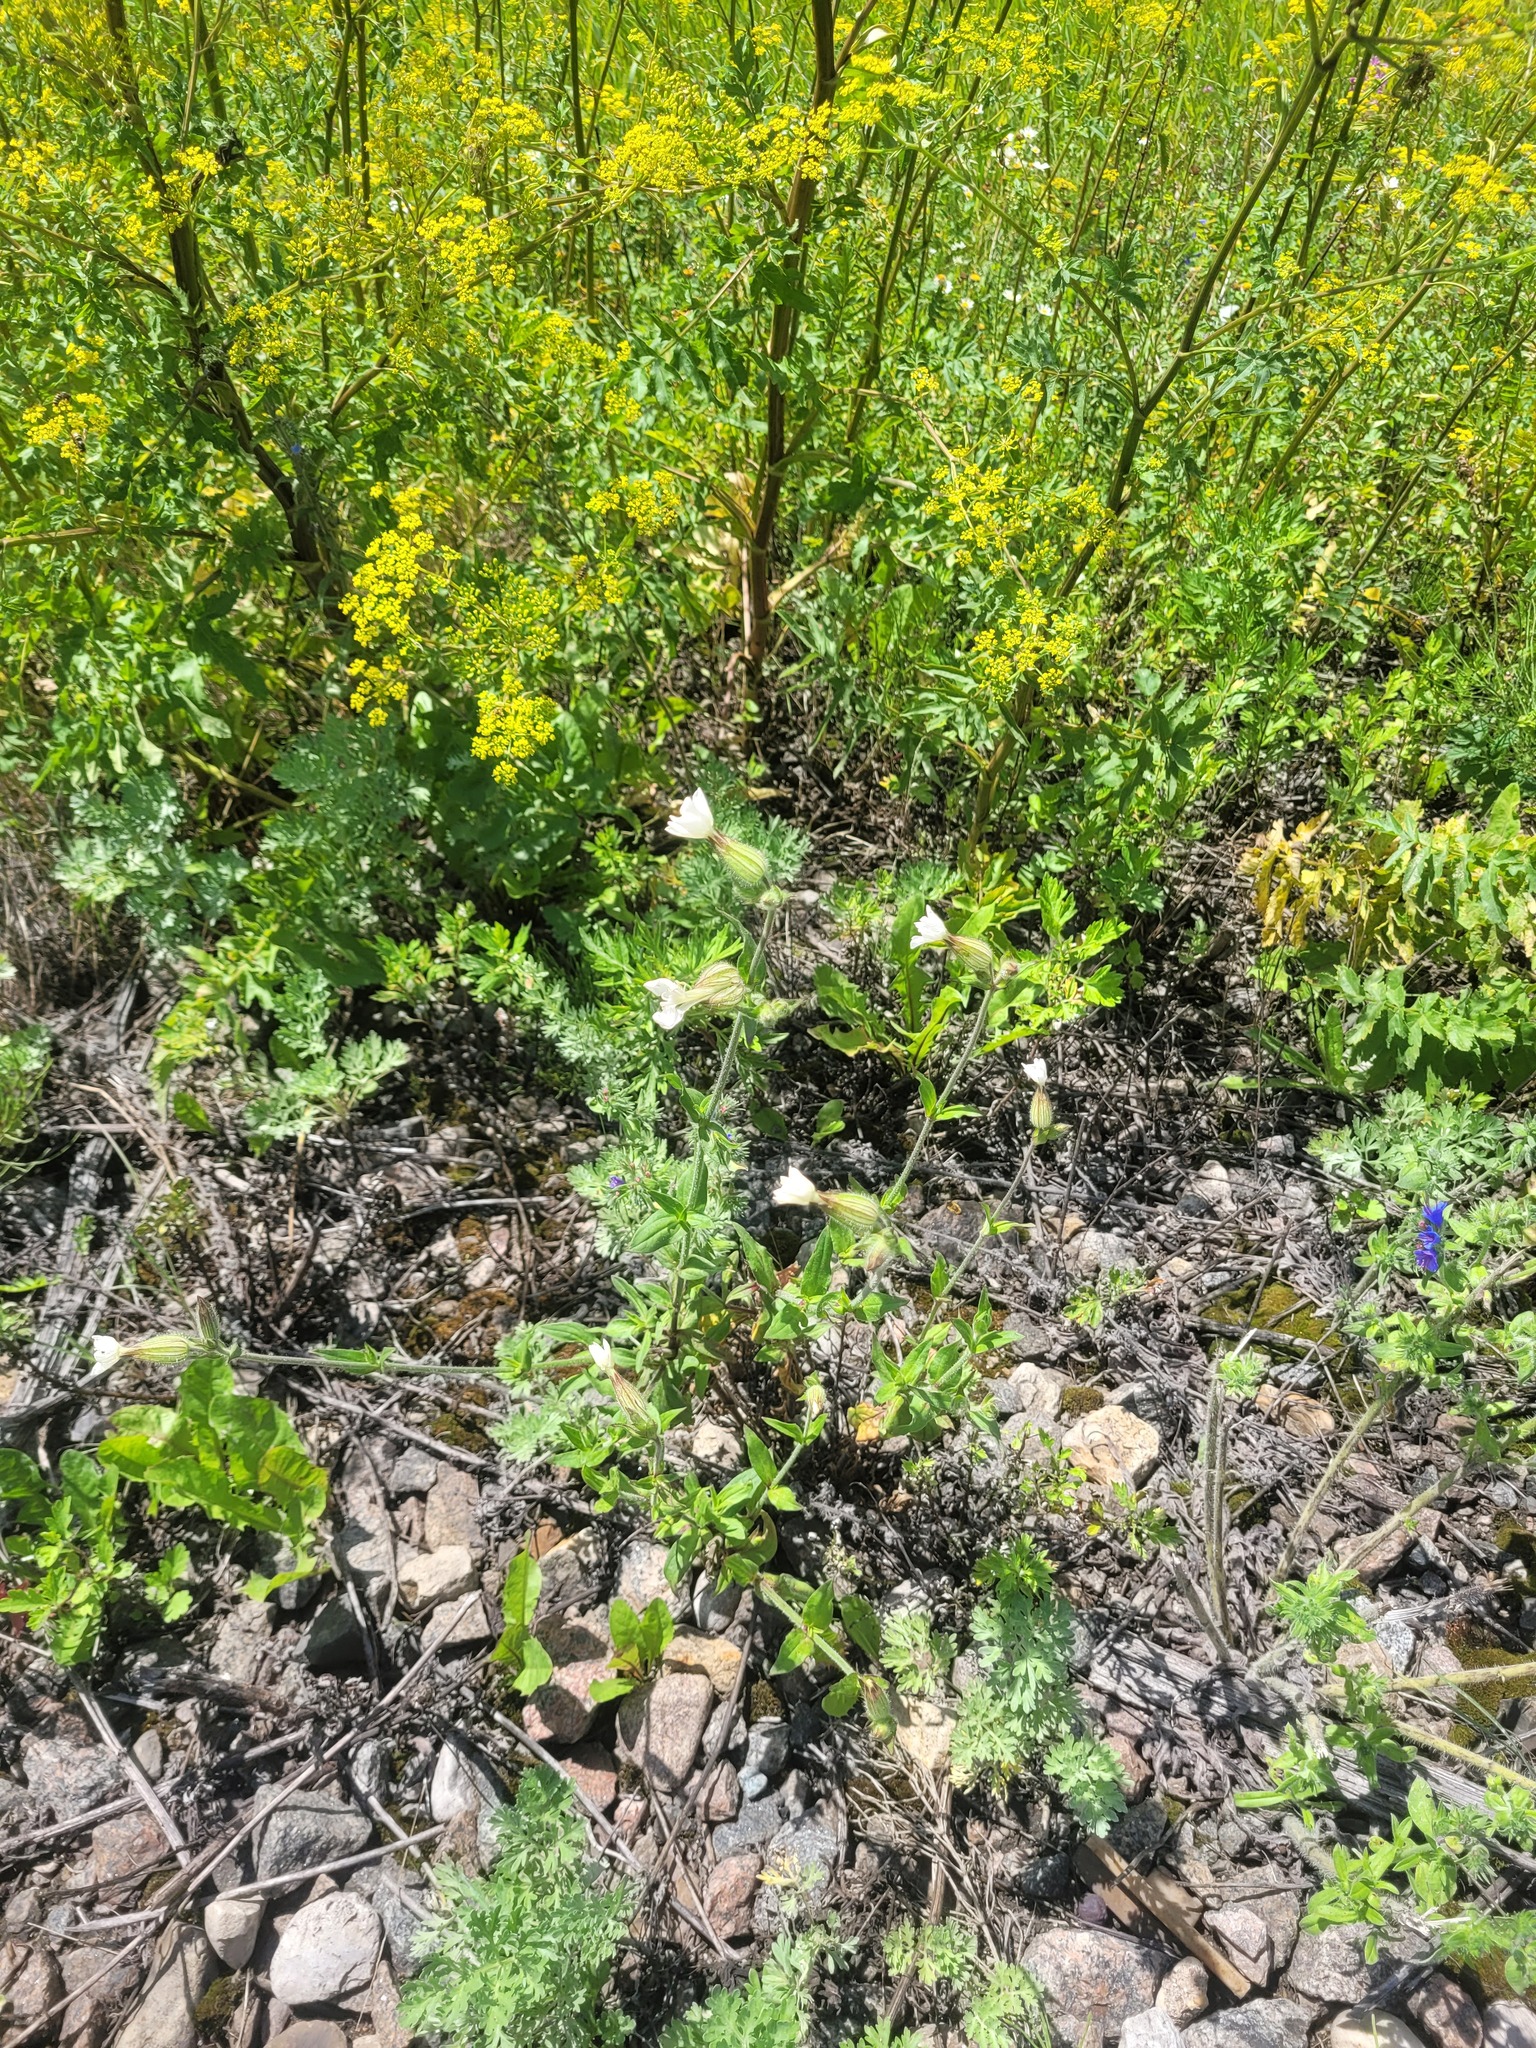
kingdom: Plantae
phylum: Tracheophyta
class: Magnoliopsida
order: Caryophyllales
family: Caryophyllaceae
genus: Silene
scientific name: Silene latifolia
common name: White campion
